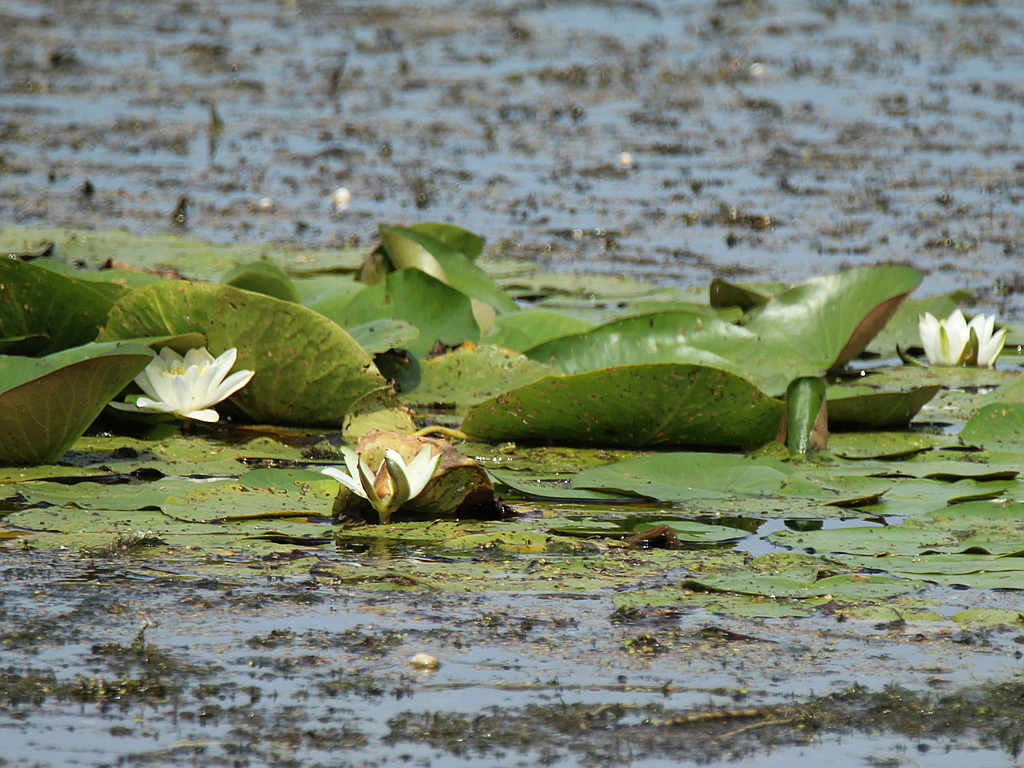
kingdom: Plantae
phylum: Tracheophyta
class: Magnoliopsida
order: Nymphaeales
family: Nymphaeaceae
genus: Nymphaea
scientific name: Nymphaea candida
